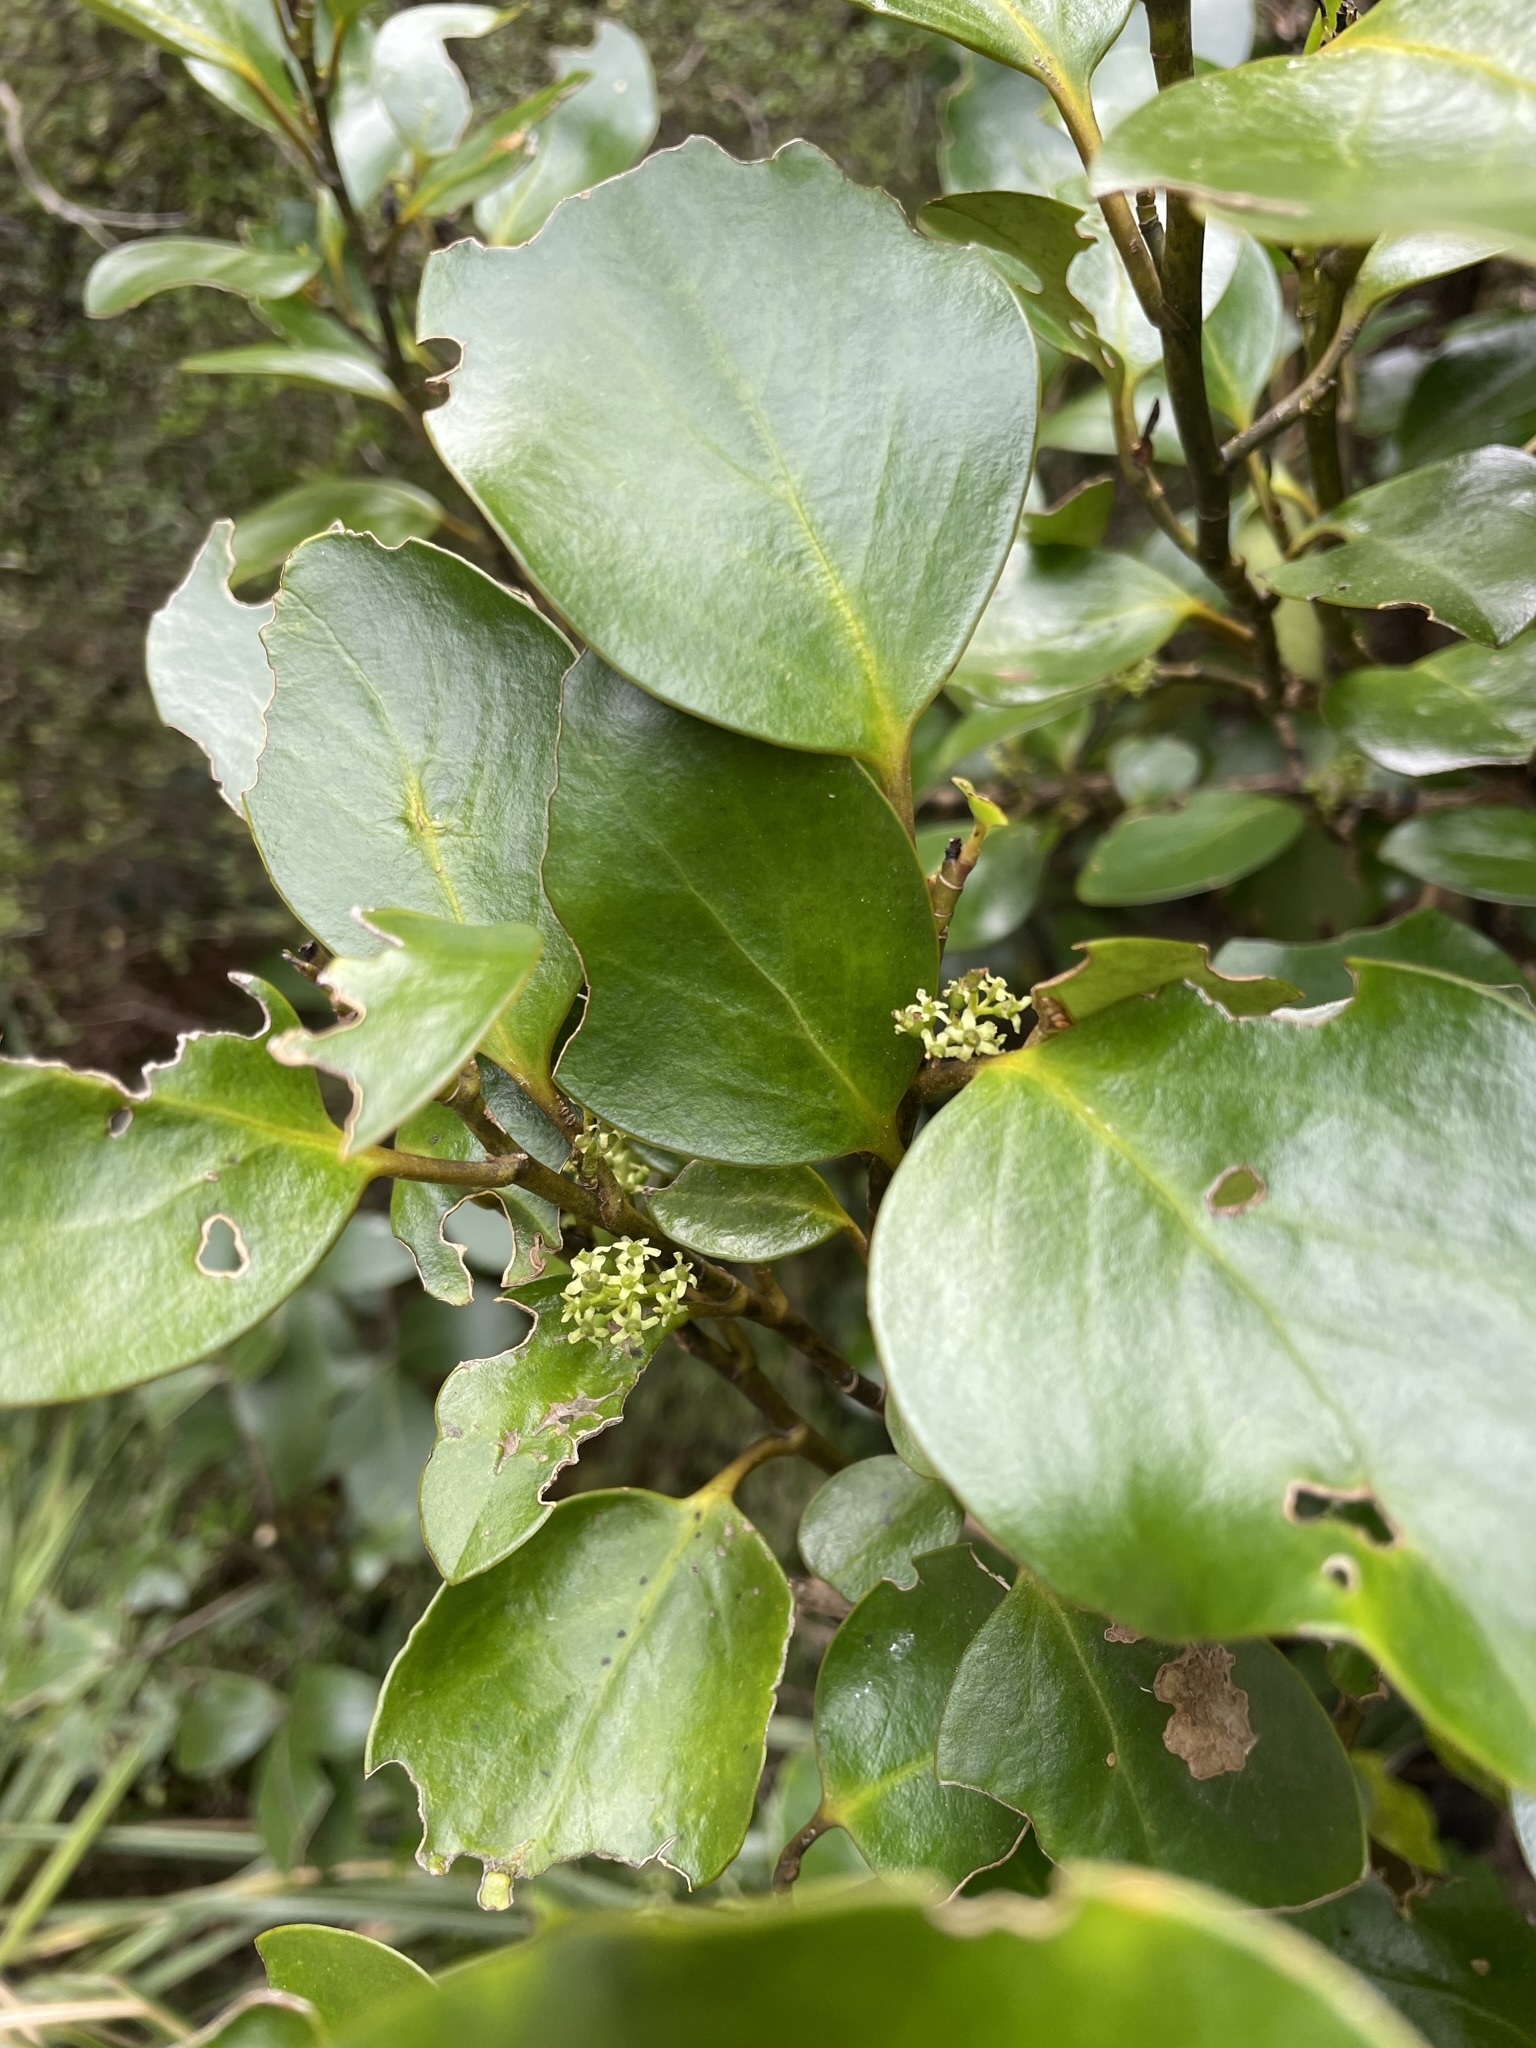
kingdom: Plantae
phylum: Tracheophyta
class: Magnoliopsida
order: Apiales
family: Griseliniaceae
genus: Griselinia
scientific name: Griselinia littoralis
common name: New zealand broadleaf
